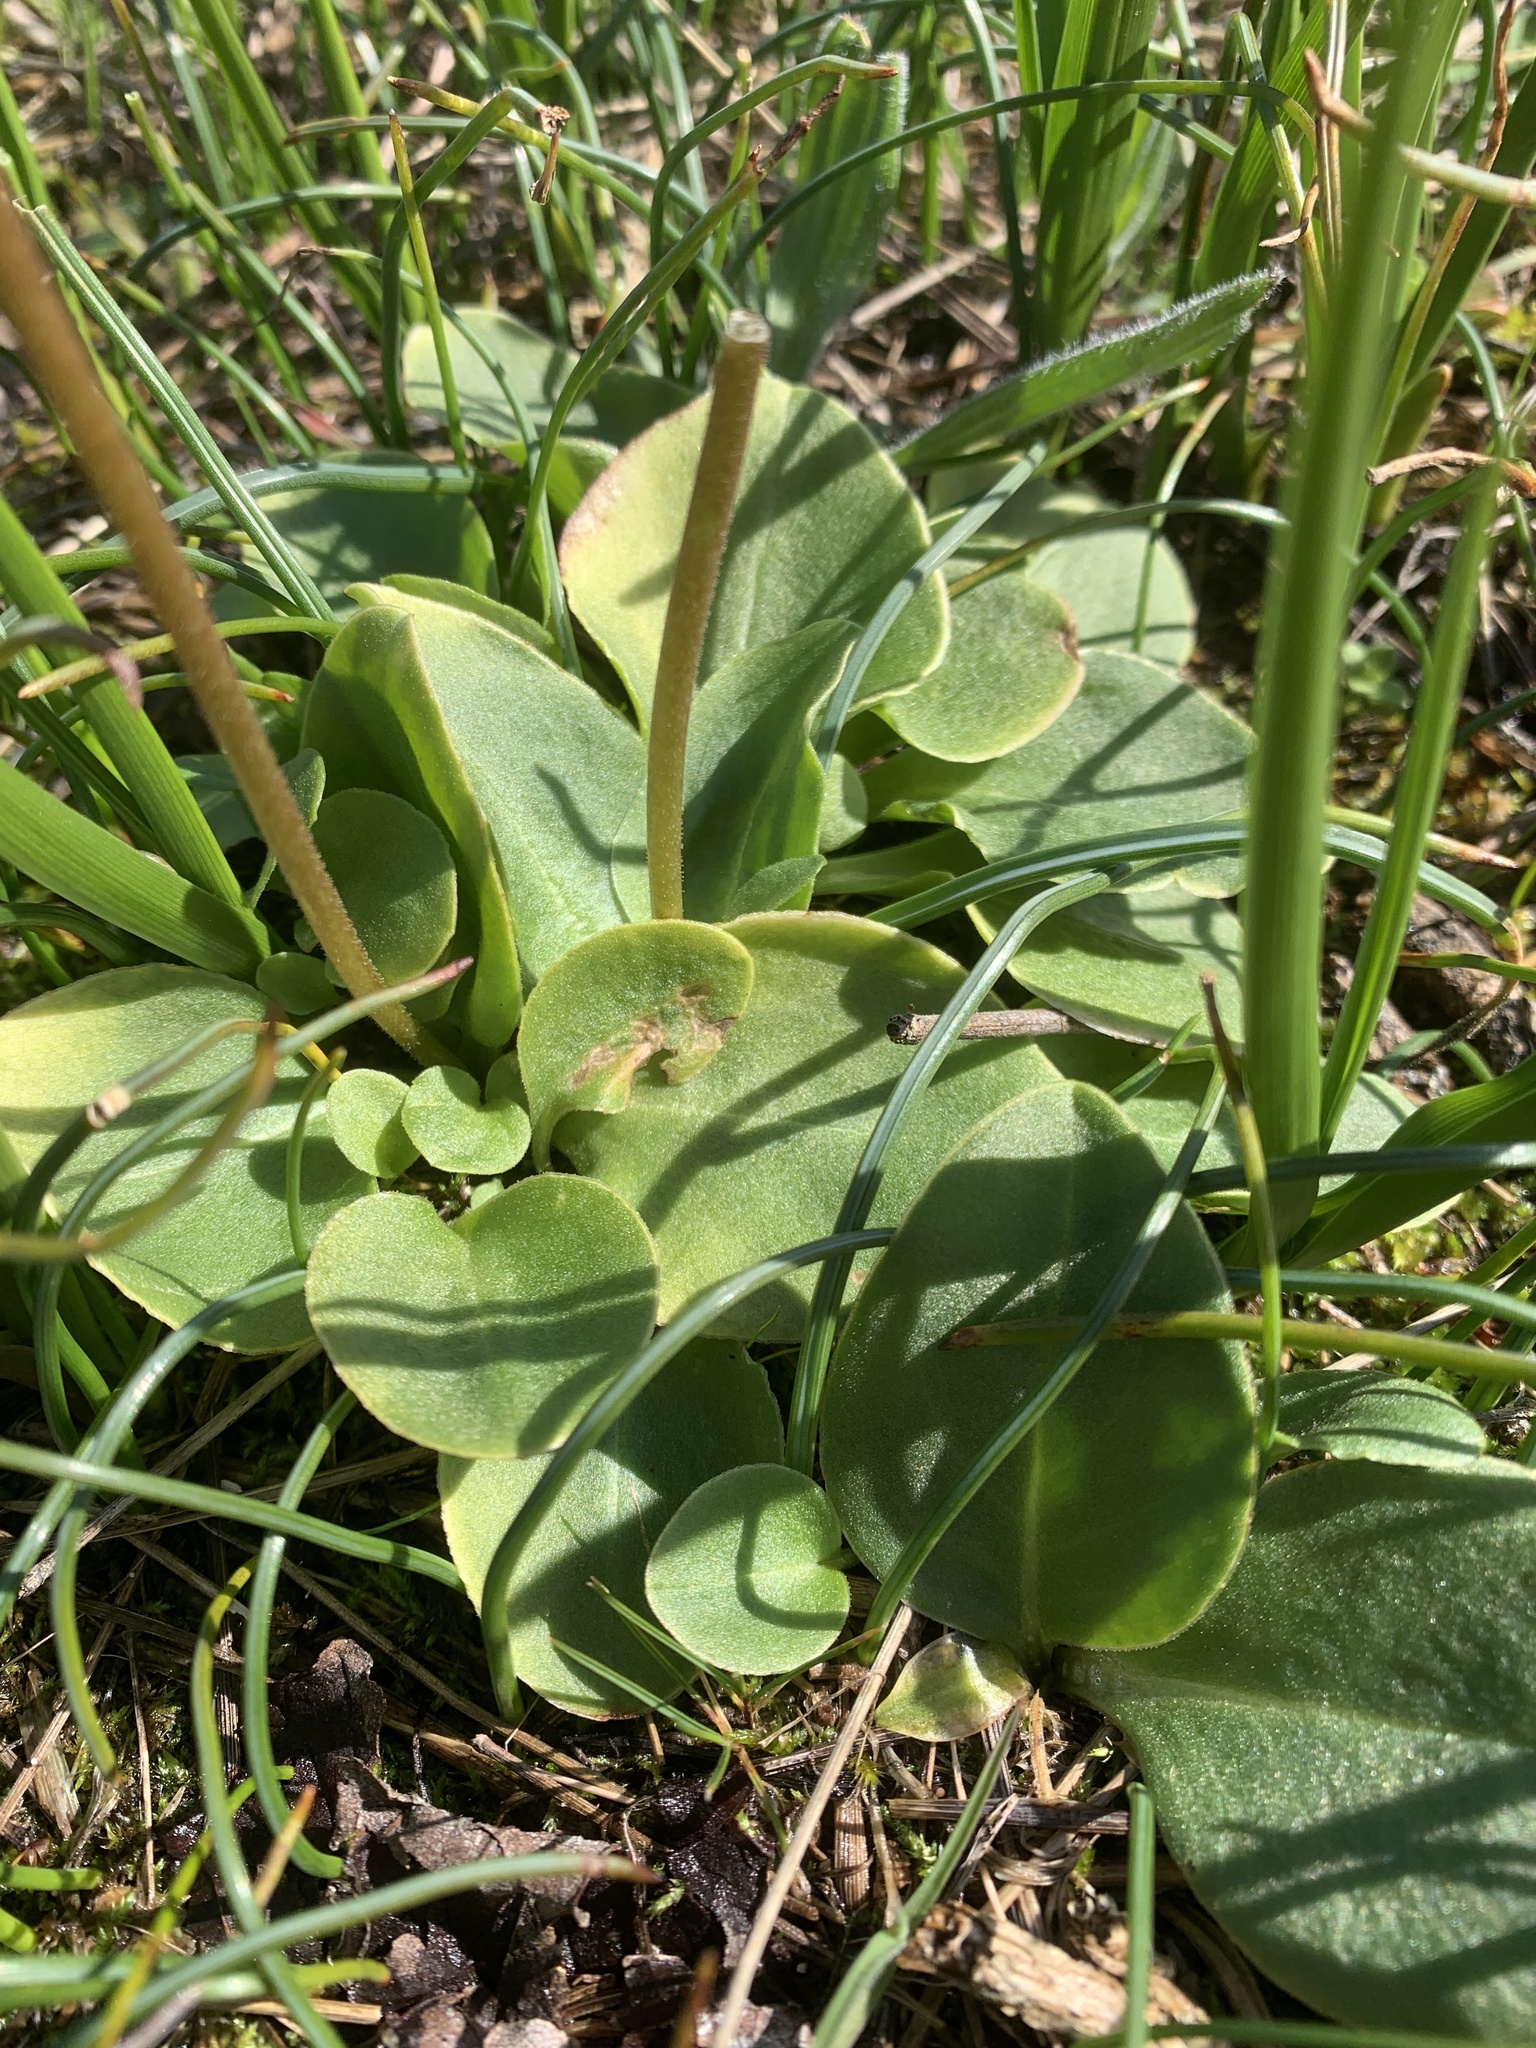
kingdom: Plantae
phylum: Tracheophyta
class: Magnoliopsida
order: Ericales
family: Primulaceae
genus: Dodecatheon
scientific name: Dodecatheon hendersonii
